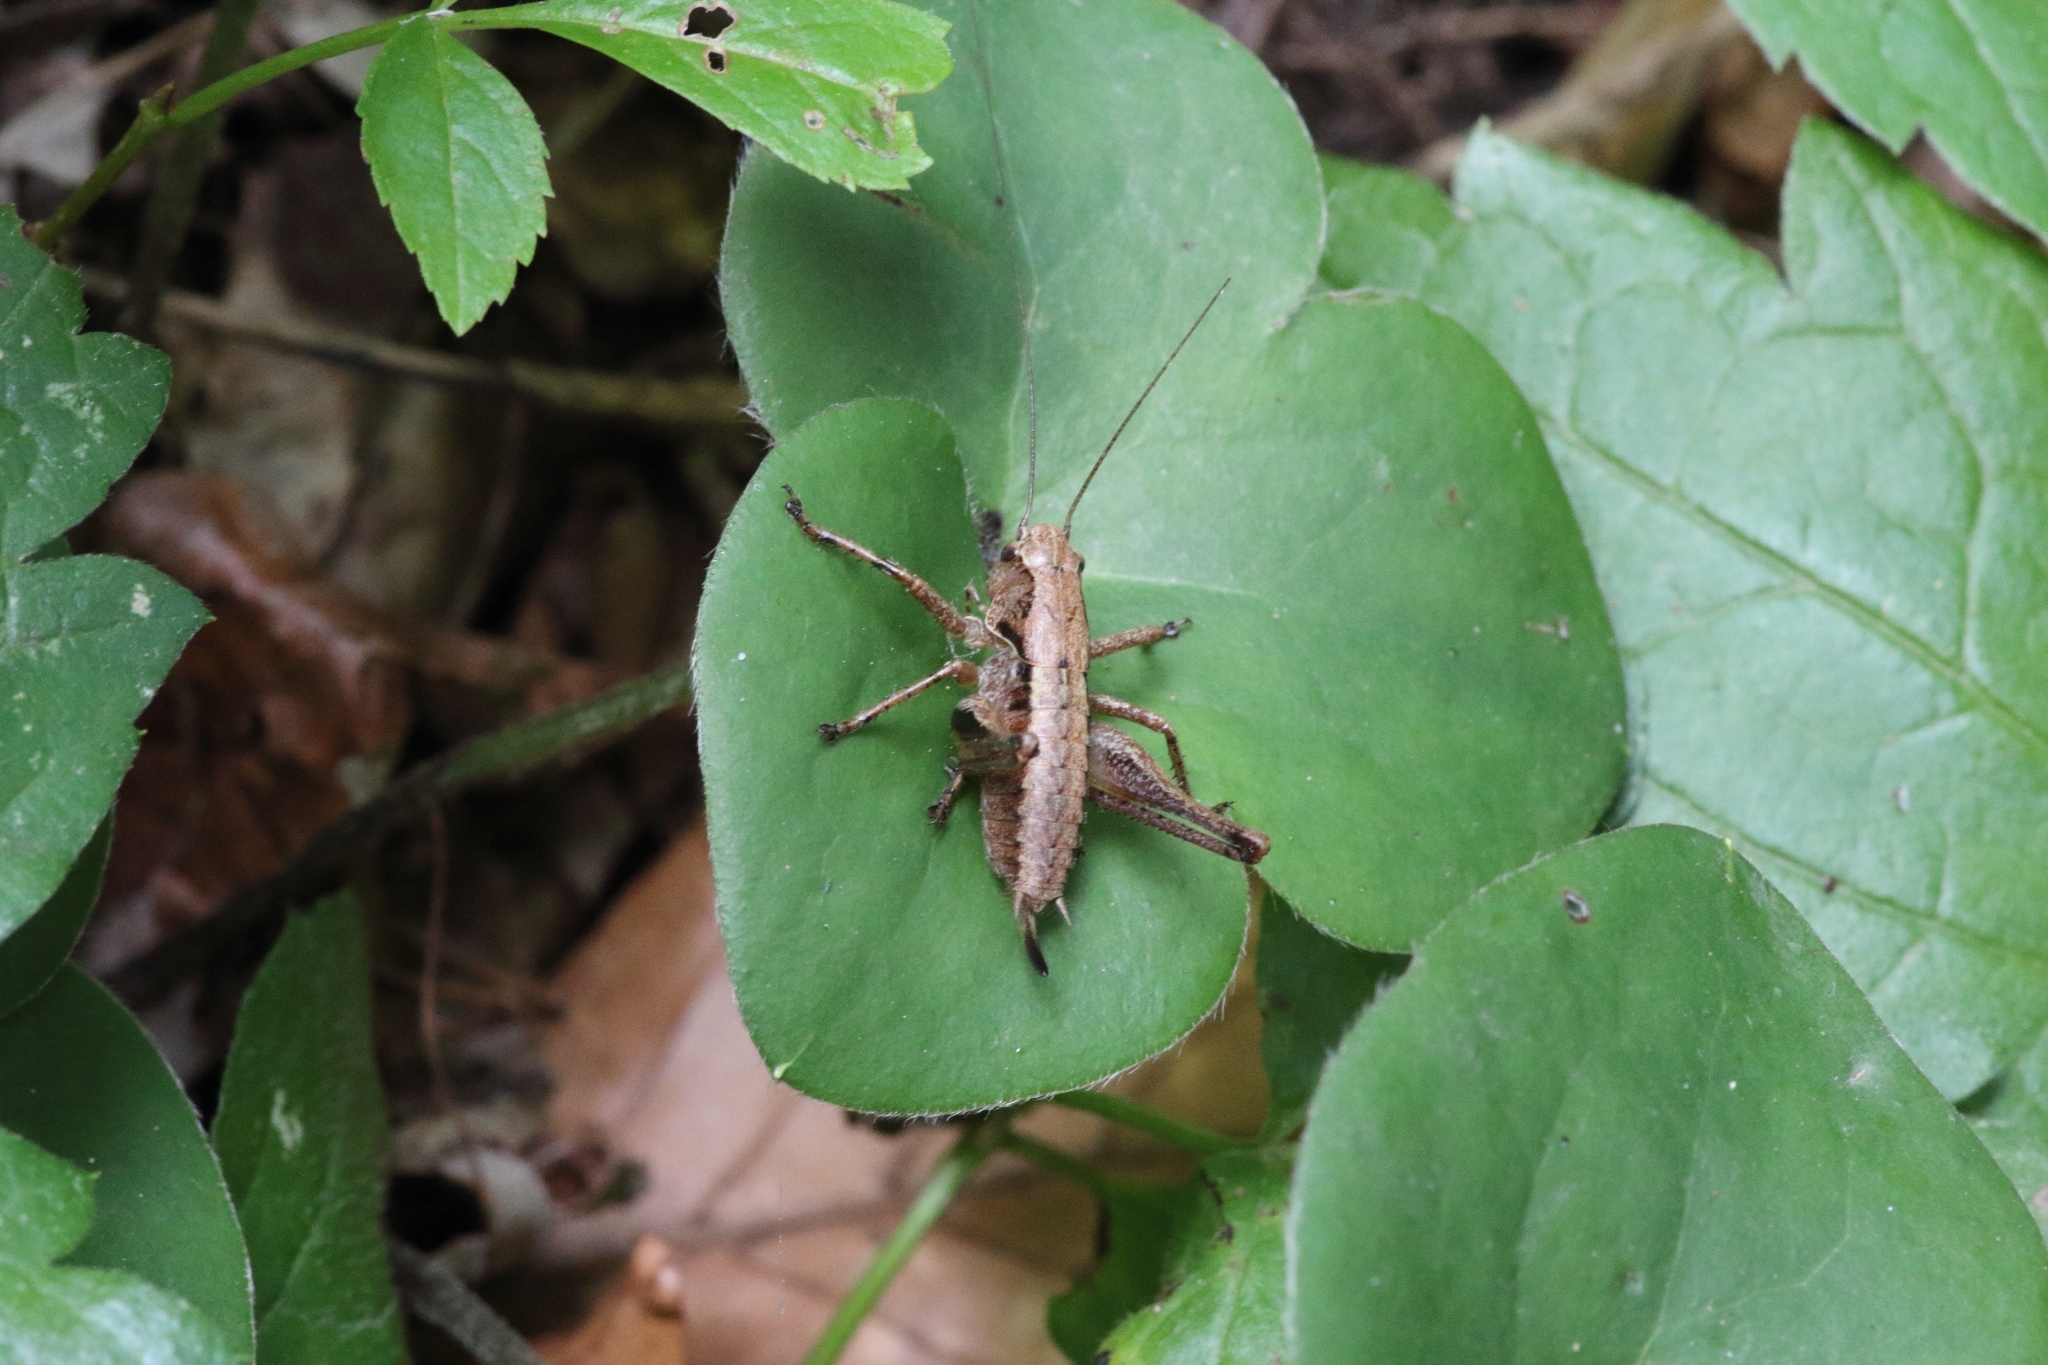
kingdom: Animalia
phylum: Arthropoda
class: Insecta
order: Orthoptera
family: Tettigoniidae
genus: Pholidoptera
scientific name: Pholidoptera griseoaptera
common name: Dark bush-cricket
